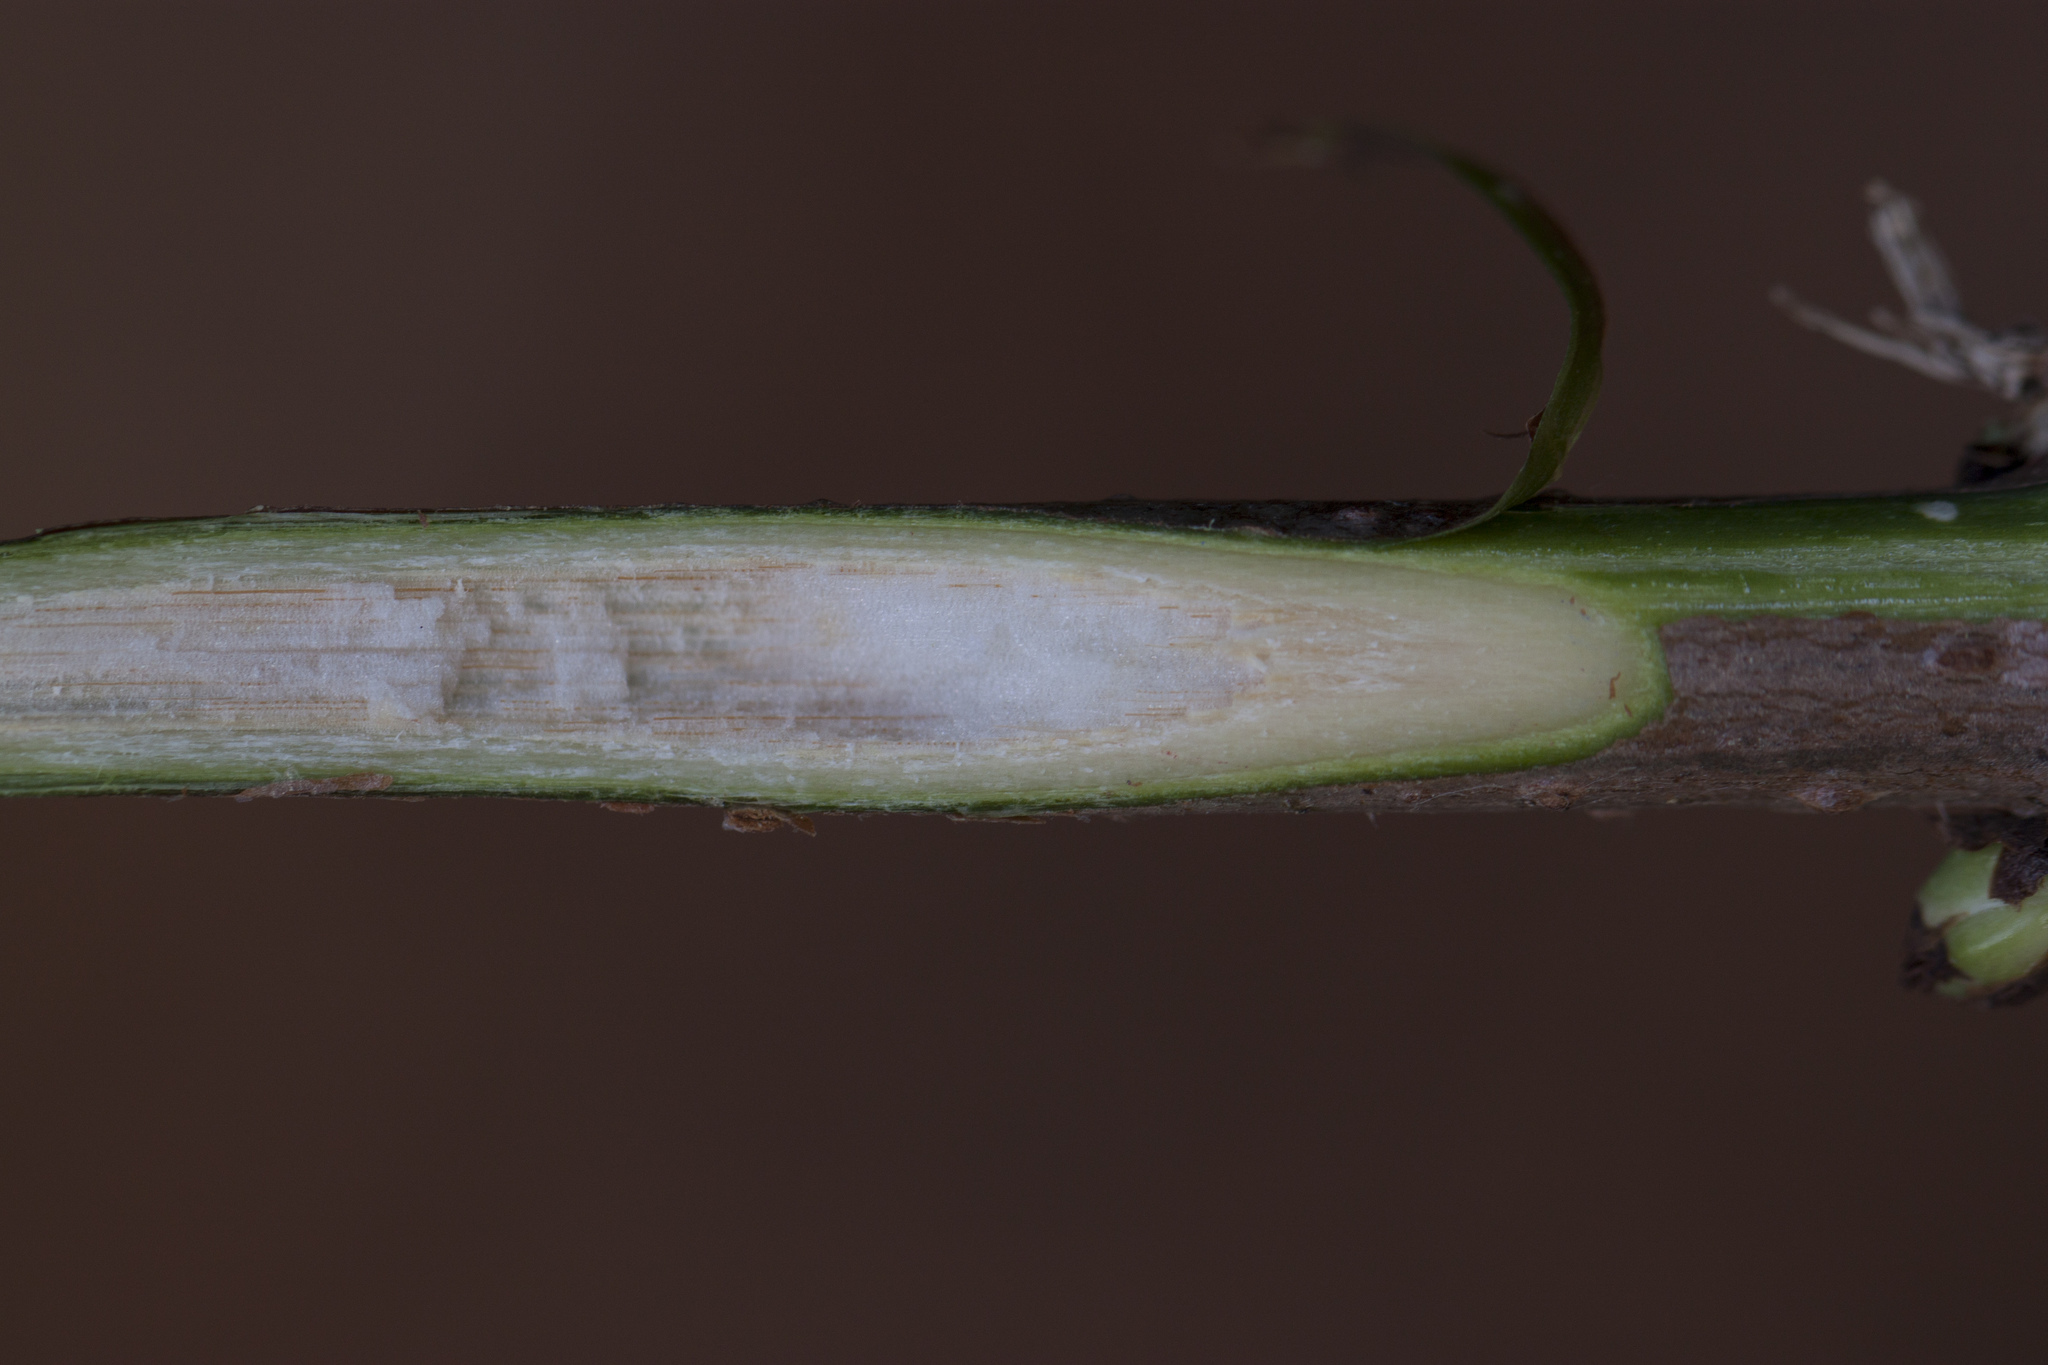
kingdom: Plantae
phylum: Tracheophyta
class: Magnoliopsida
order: Dipsacales
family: Viburnaceae
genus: Sambucus
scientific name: Sambucus racemosa
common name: Red-berried elder
